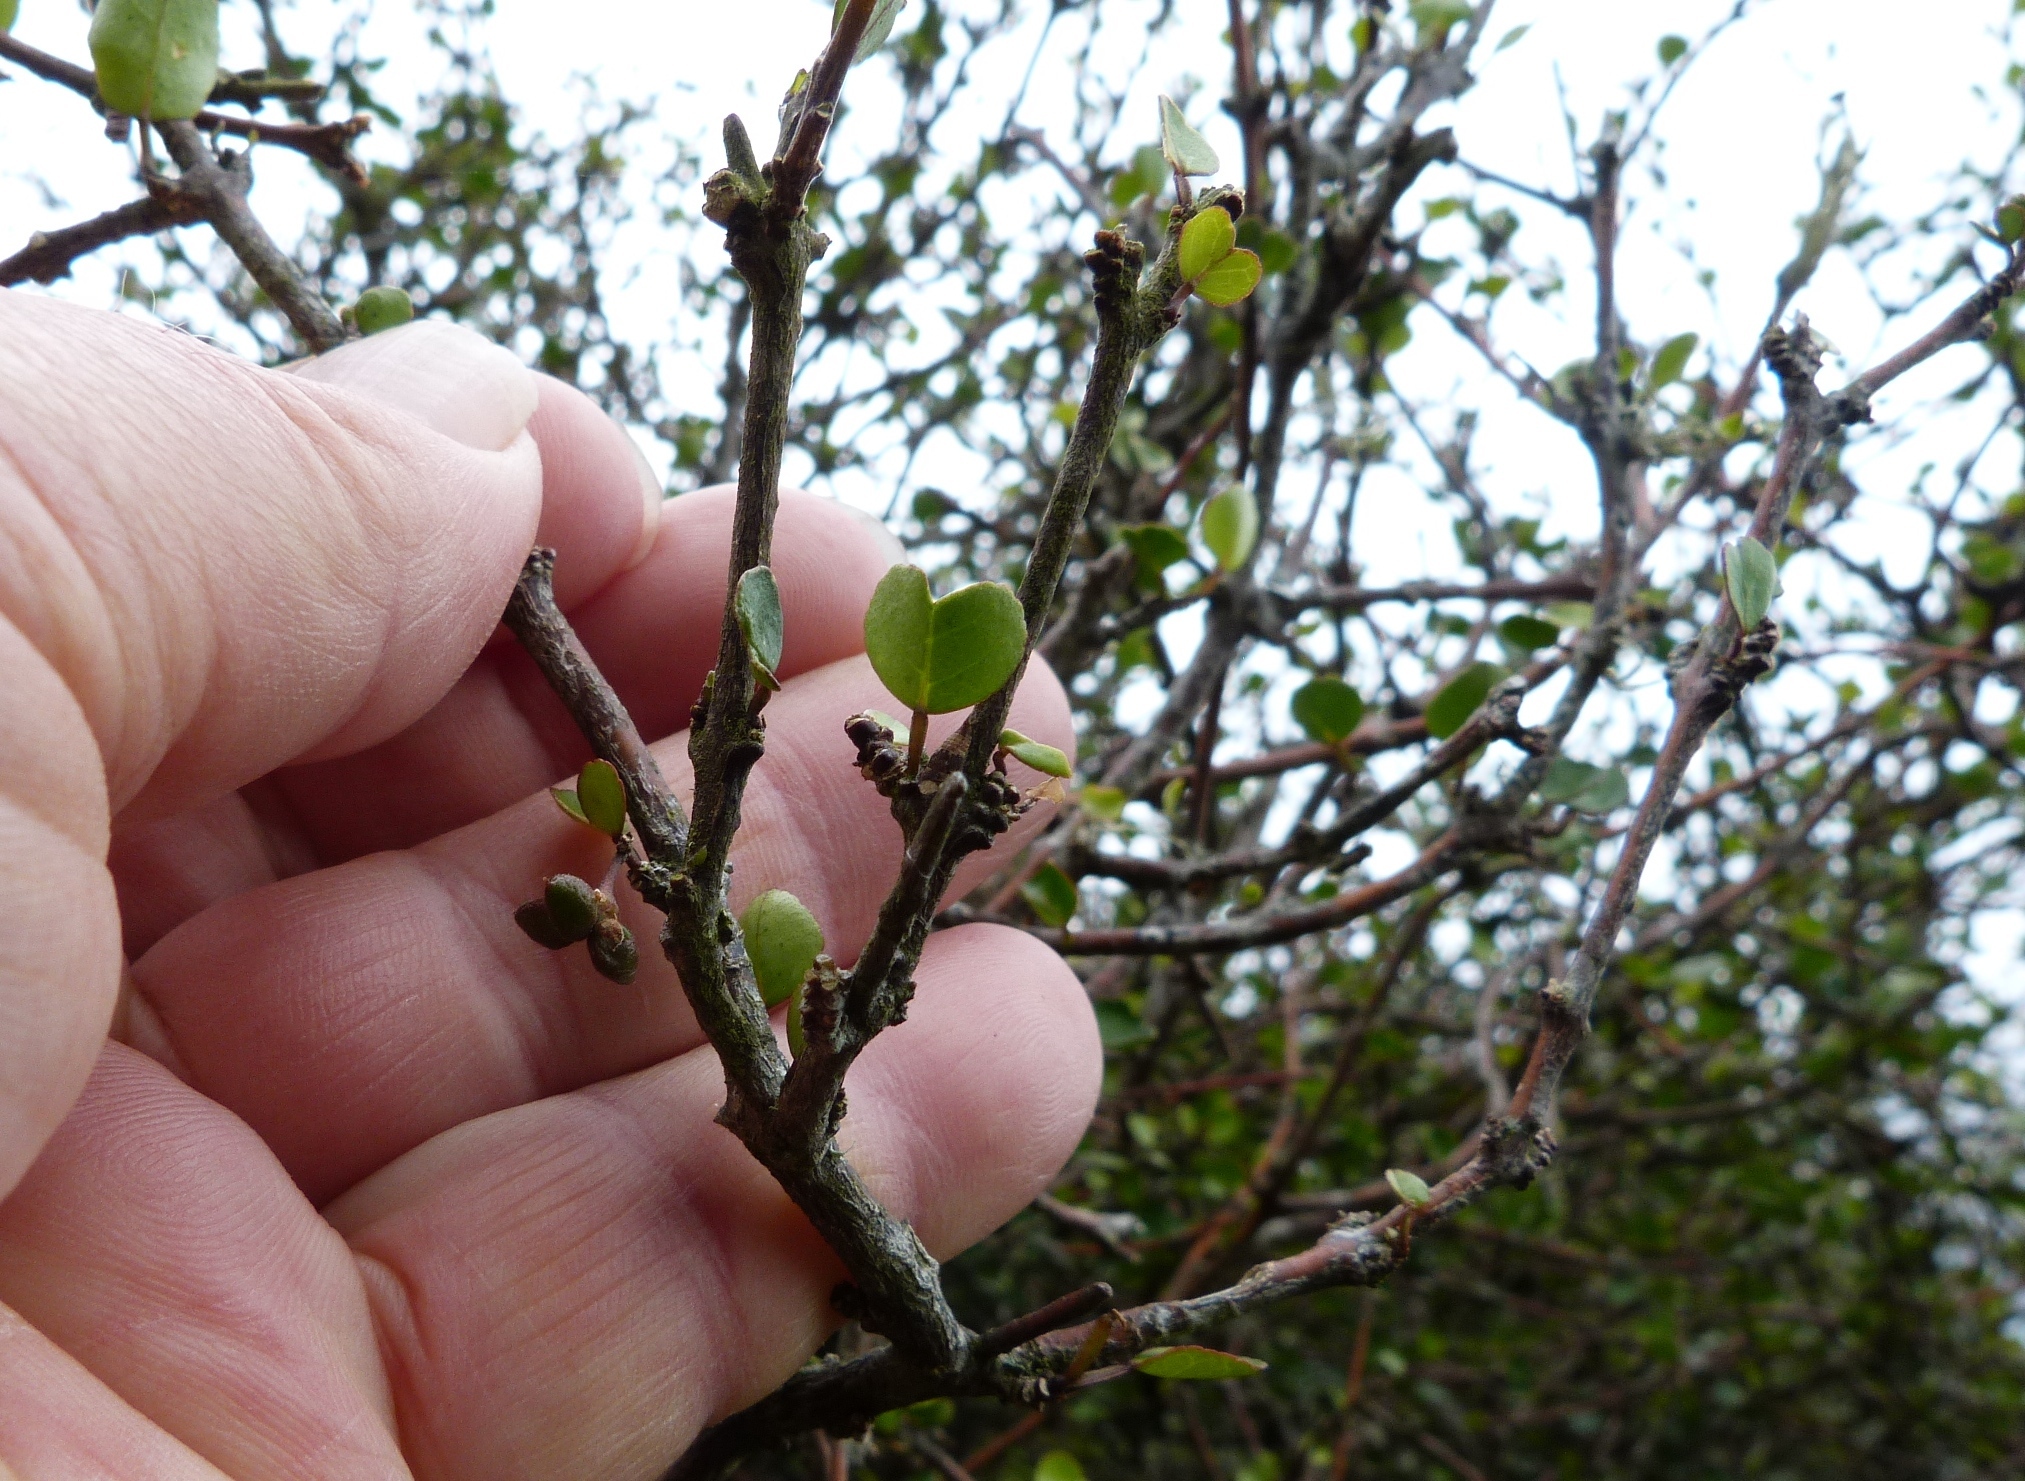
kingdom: Plantae
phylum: Tracheophyta
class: Magnoliopsida
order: Sapindales
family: Rutaceae
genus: Melicope
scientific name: Melicope simplex
